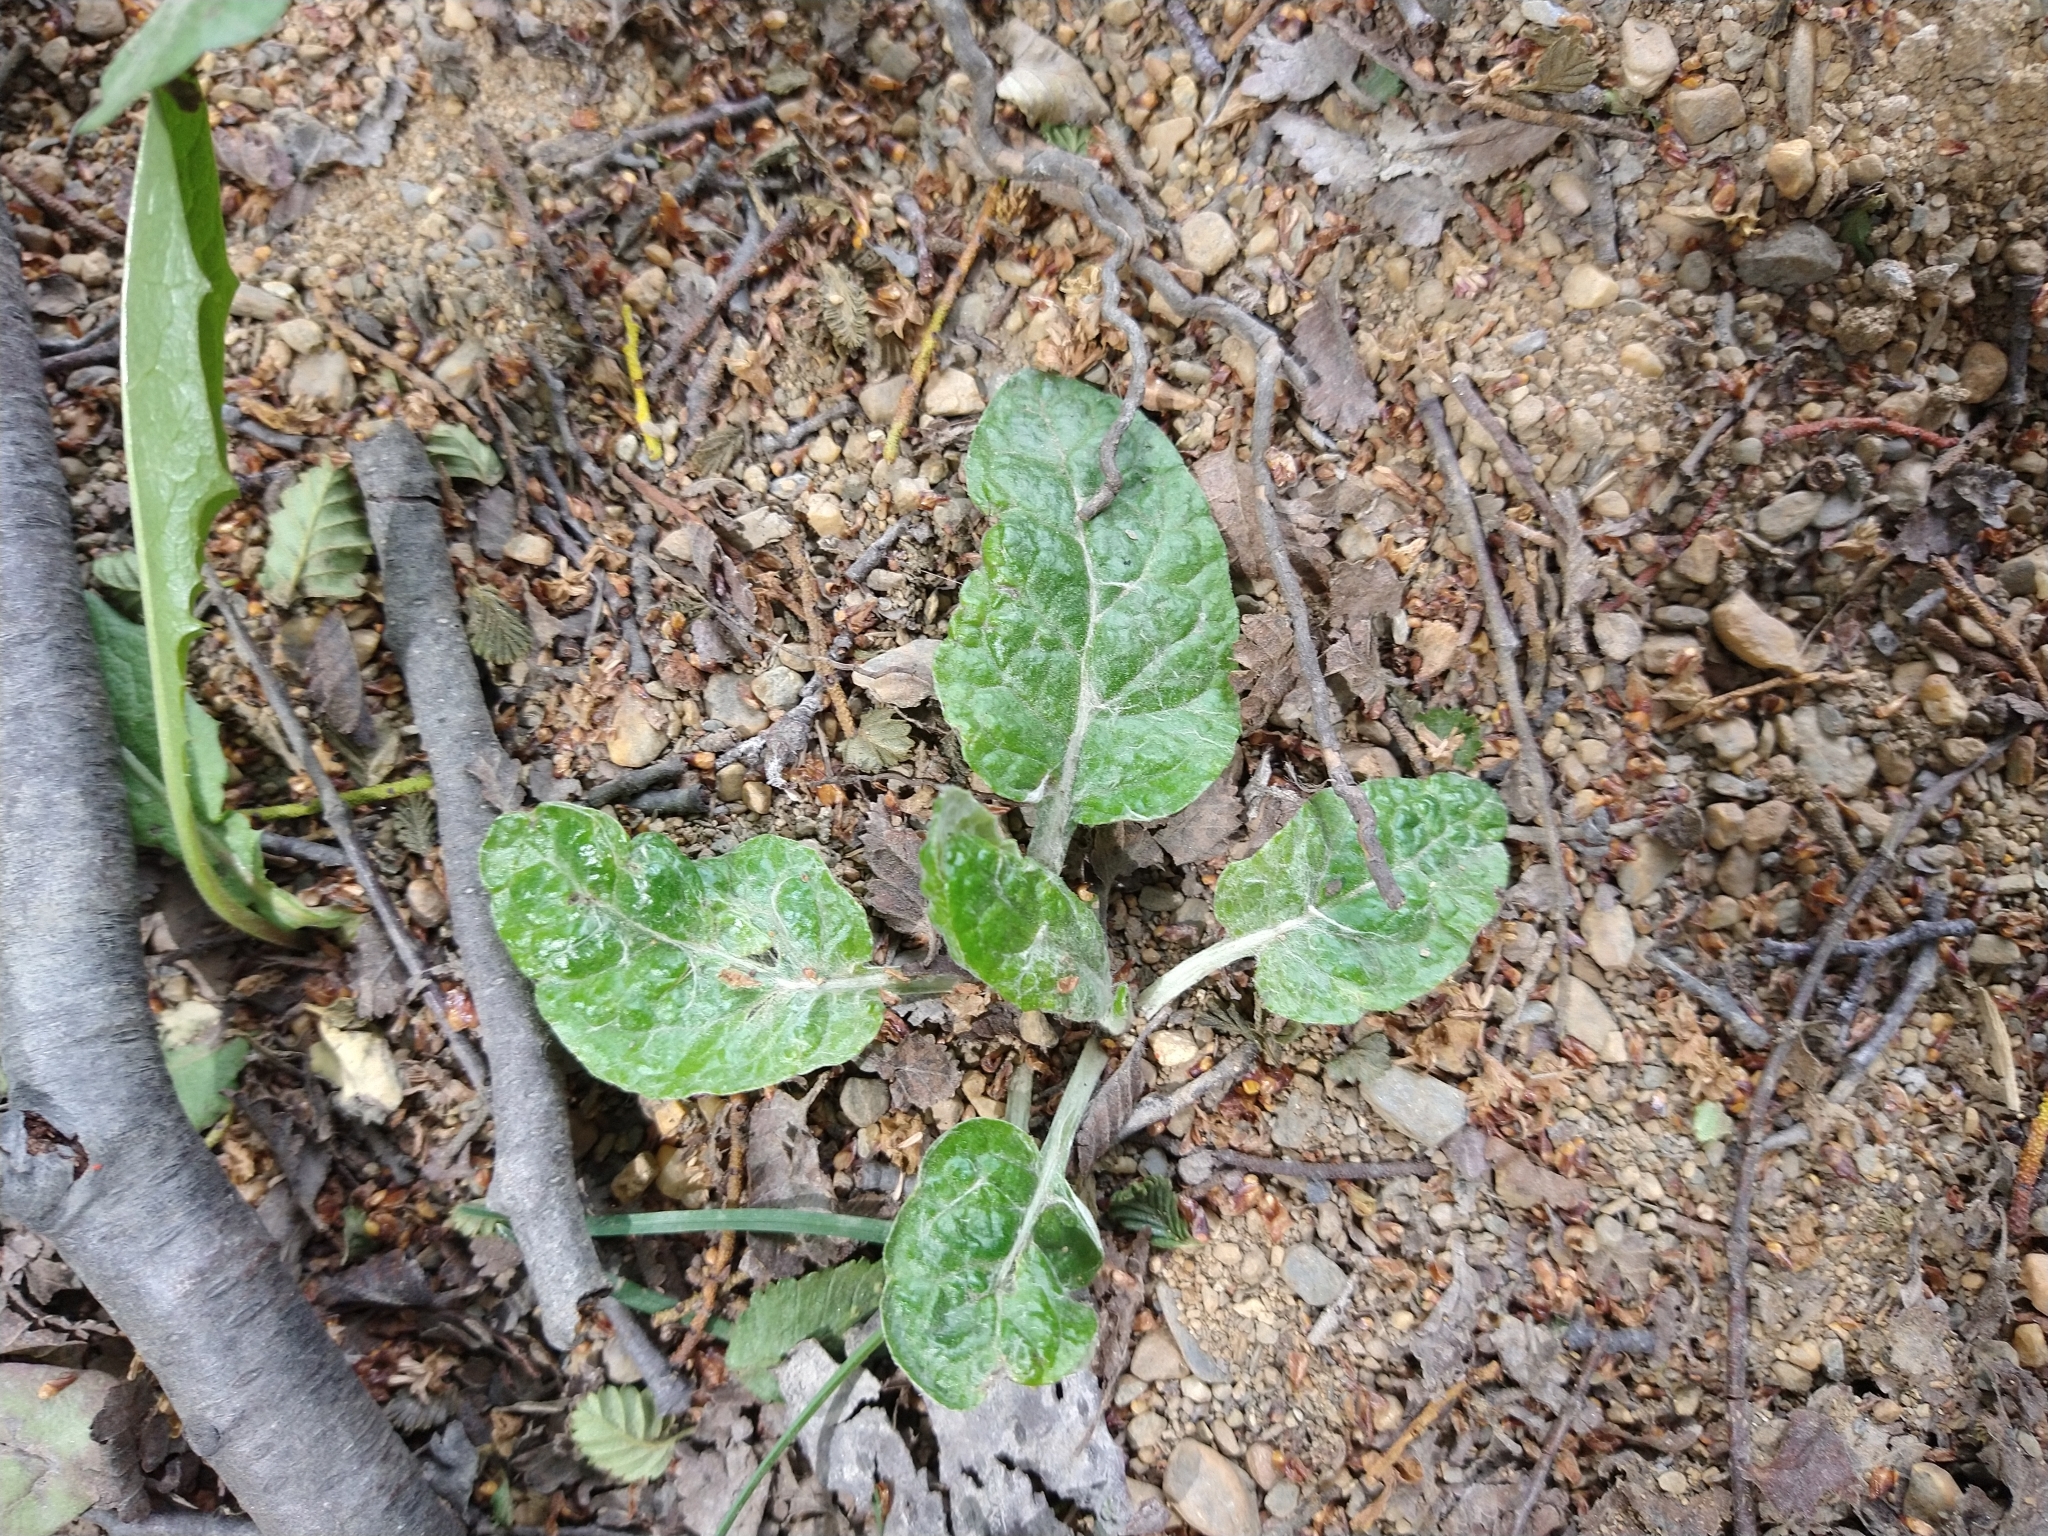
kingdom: Plantae
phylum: Tracheophyta
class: Magnoliopsida
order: Asterales
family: Asteraceae
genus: Adenocaulon
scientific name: Adenocaulon chilense
